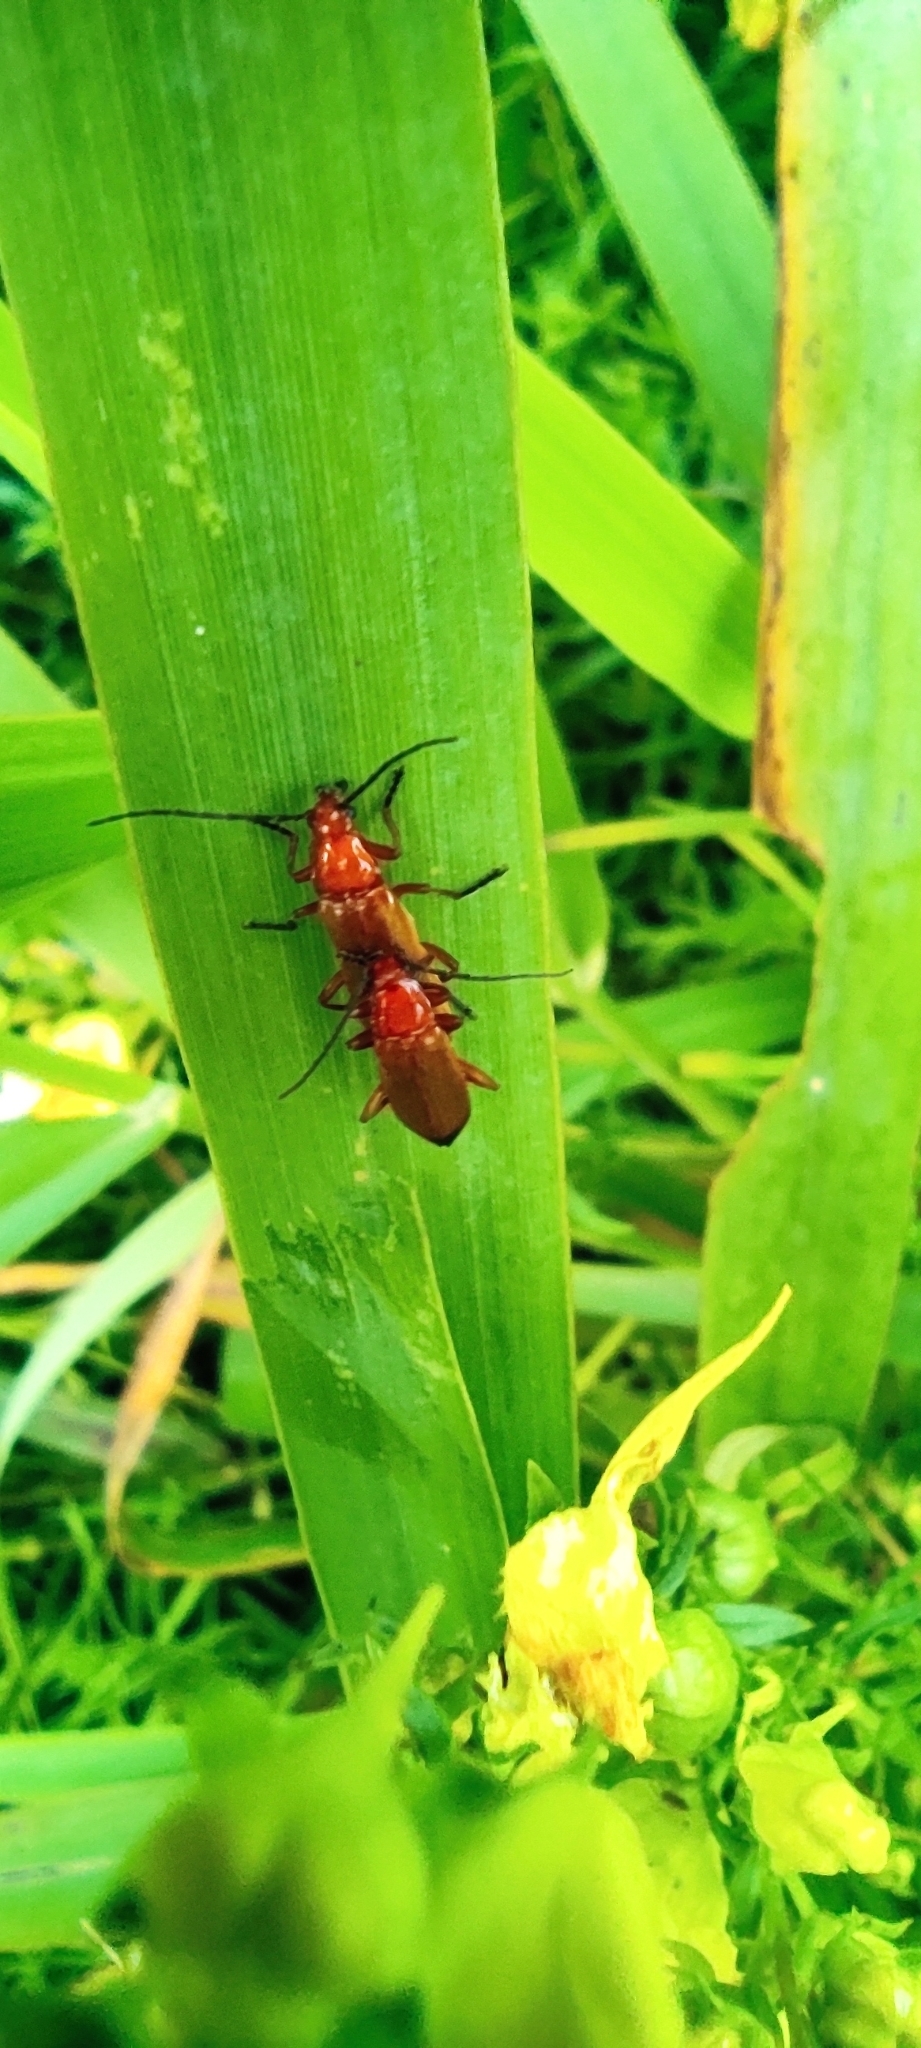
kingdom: Animalia
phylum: Arthropoda
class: Insecta
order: Coleoptera
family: Cantharidae
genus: Rhagonycha
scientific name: Rhagonycha fulva
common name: Common red soldier beetle
